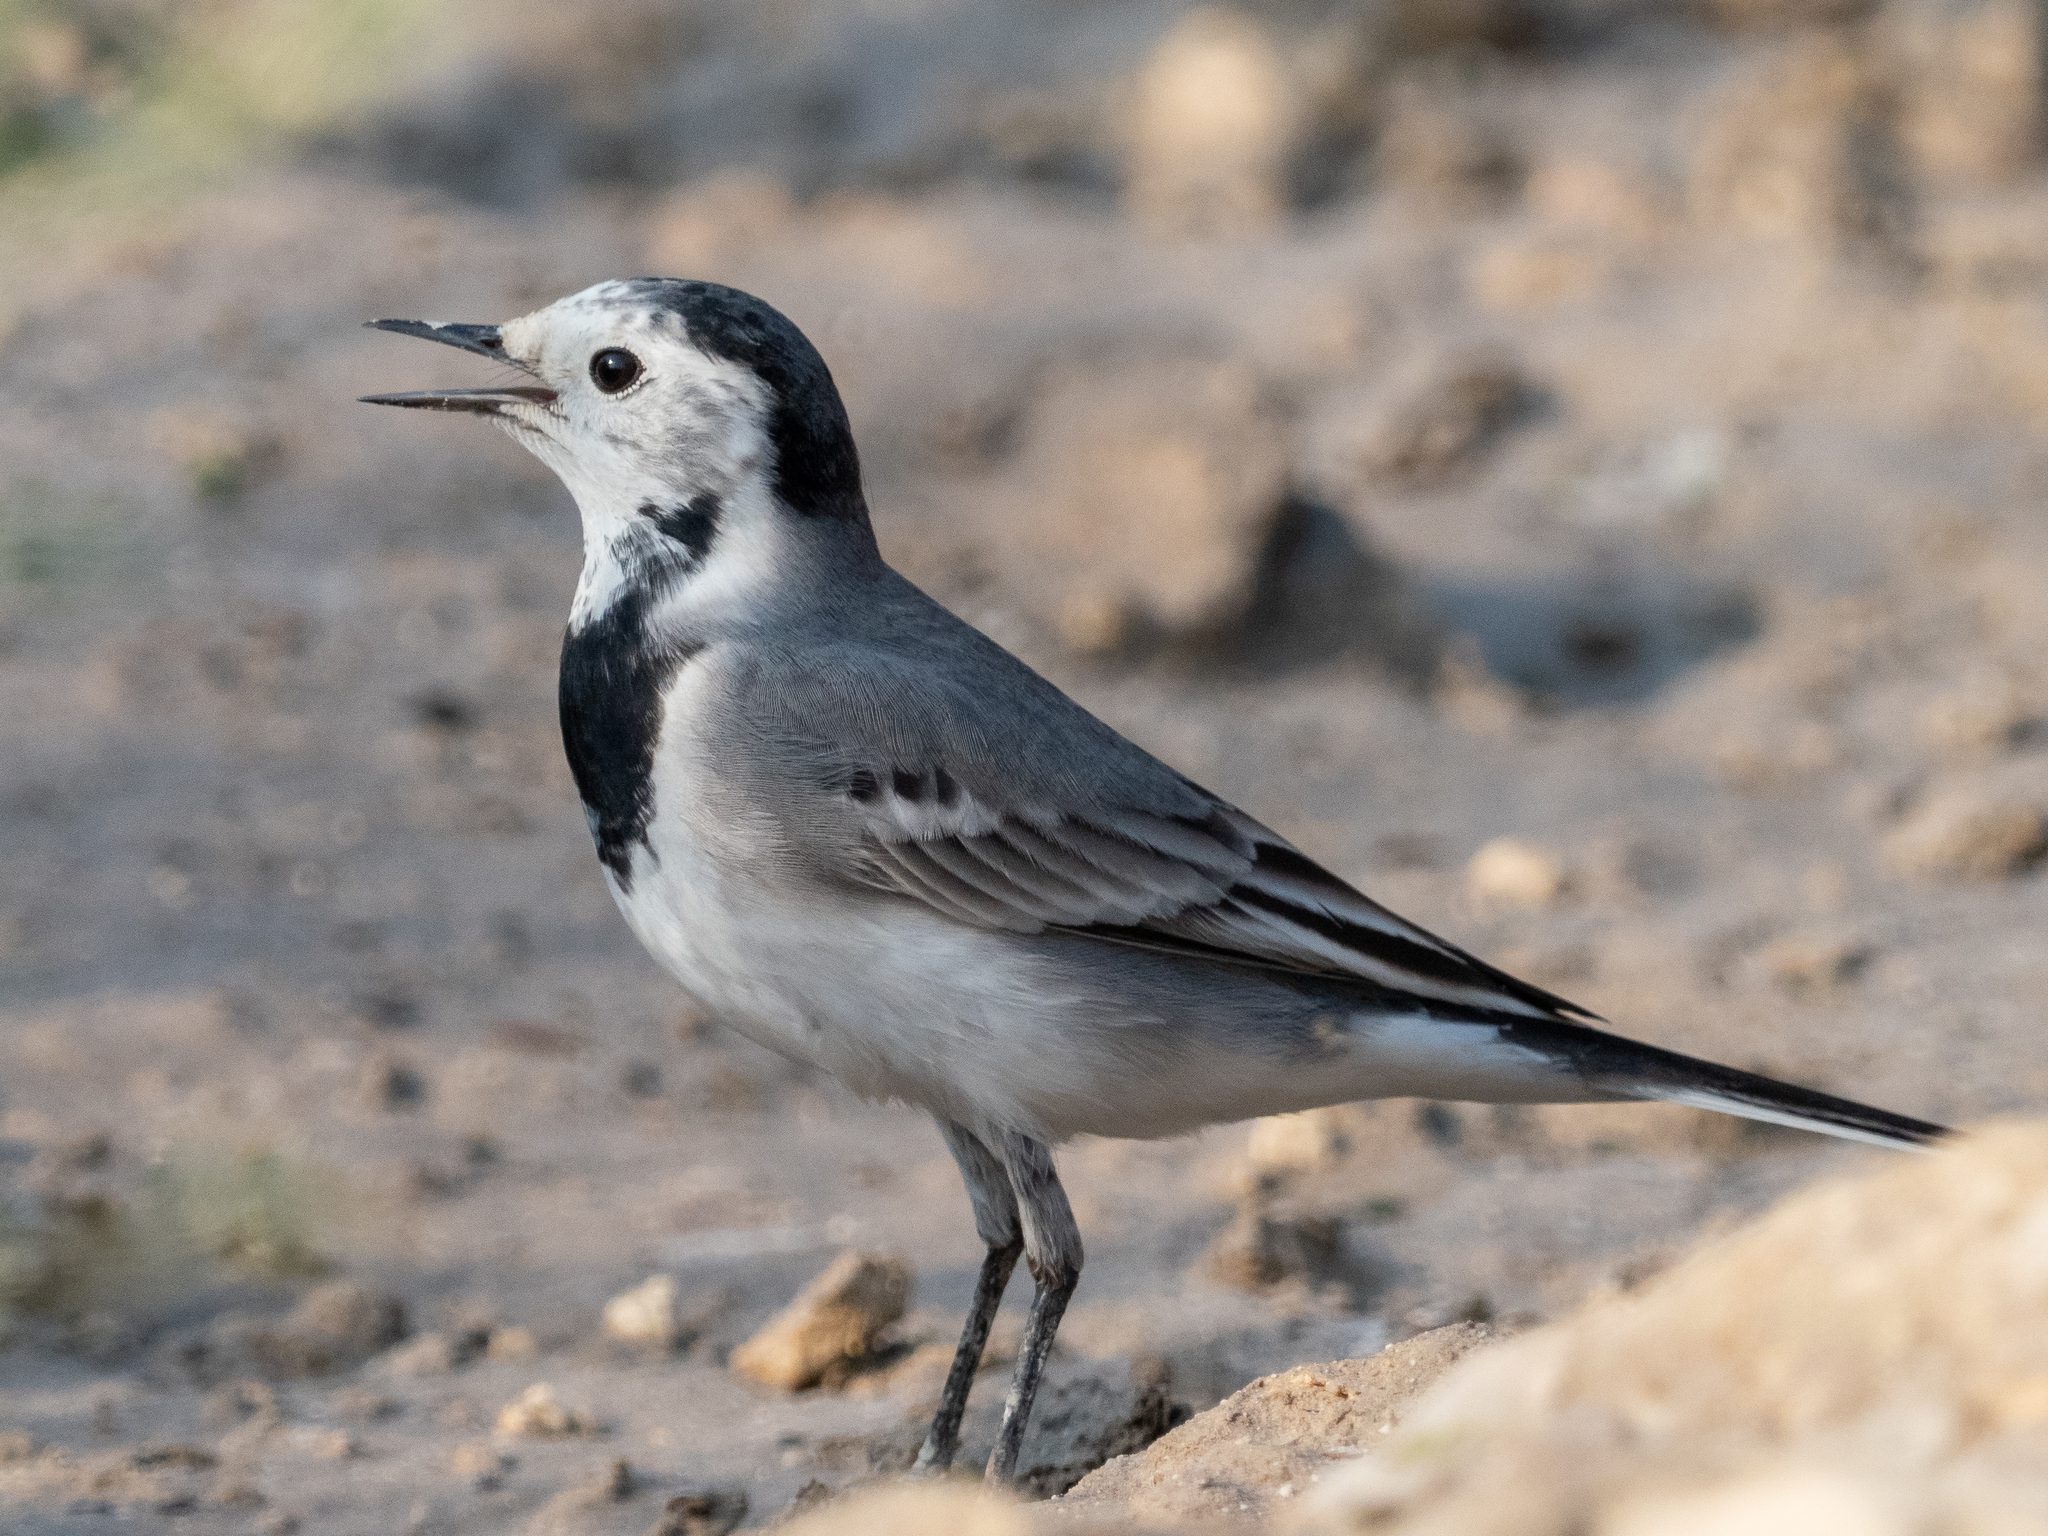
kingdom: Animalia
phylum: Chordata
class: Aves
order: Passeriformes
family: Motacillidae
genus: Motacilla
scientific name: Motacilla alba
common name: White wagtail
